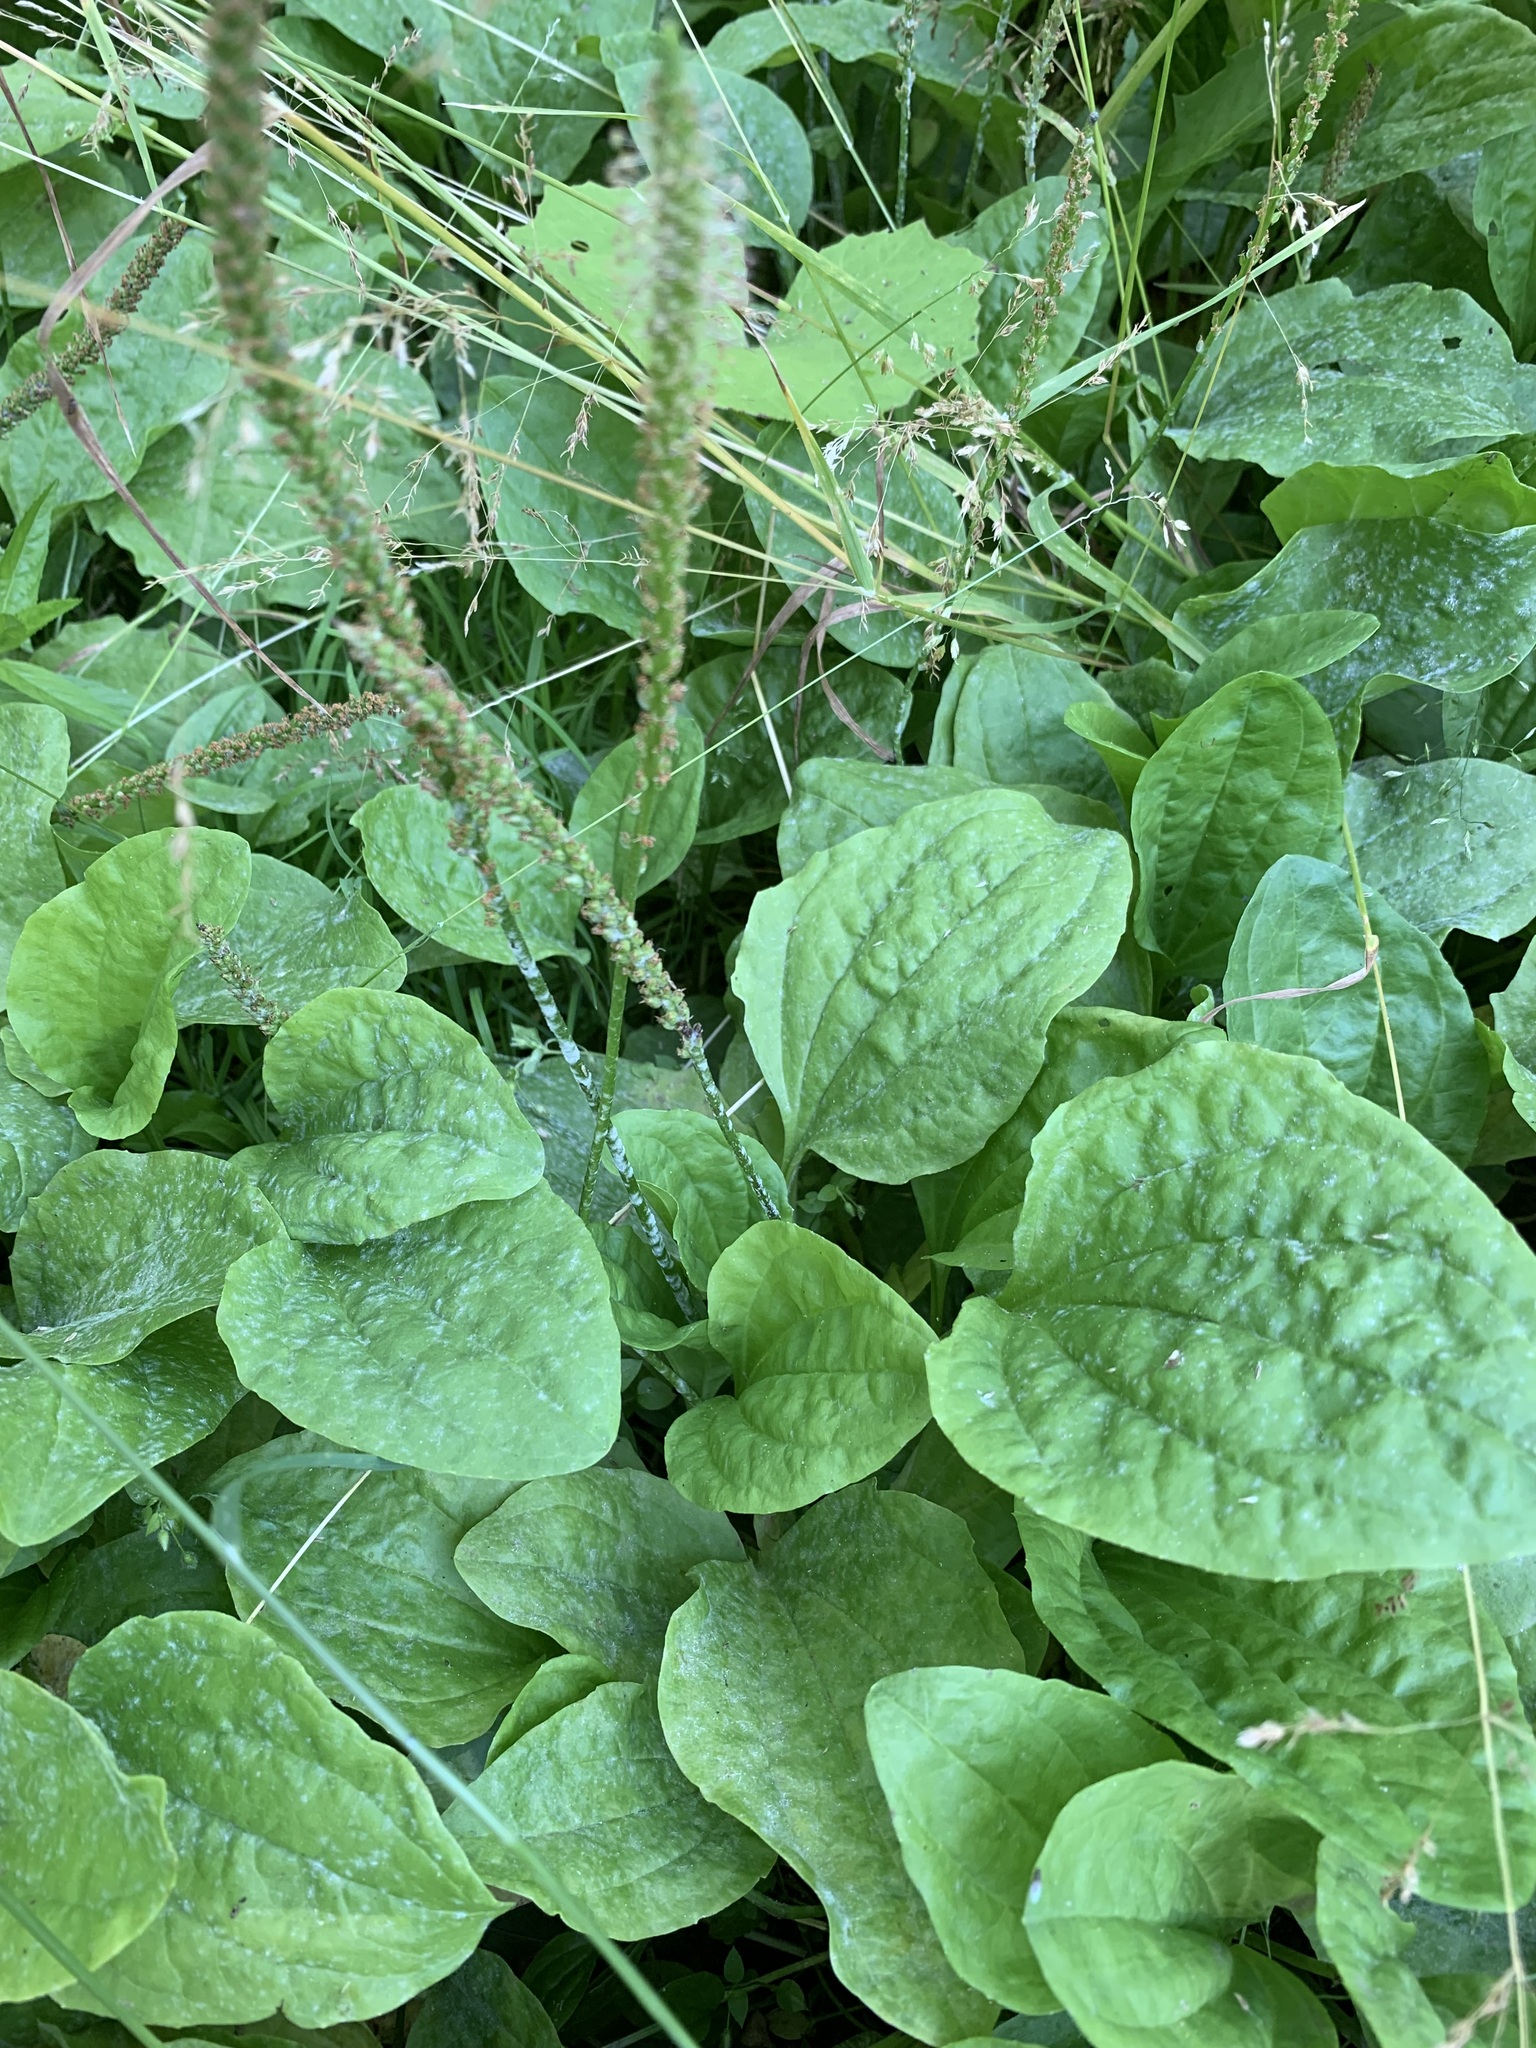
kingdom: Plantae
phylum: Tracheophyta
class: Magnoliopsida
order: Lamiales
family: Plantaginaceae
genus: Plantago
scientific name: Plantago major
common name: Common plantain
